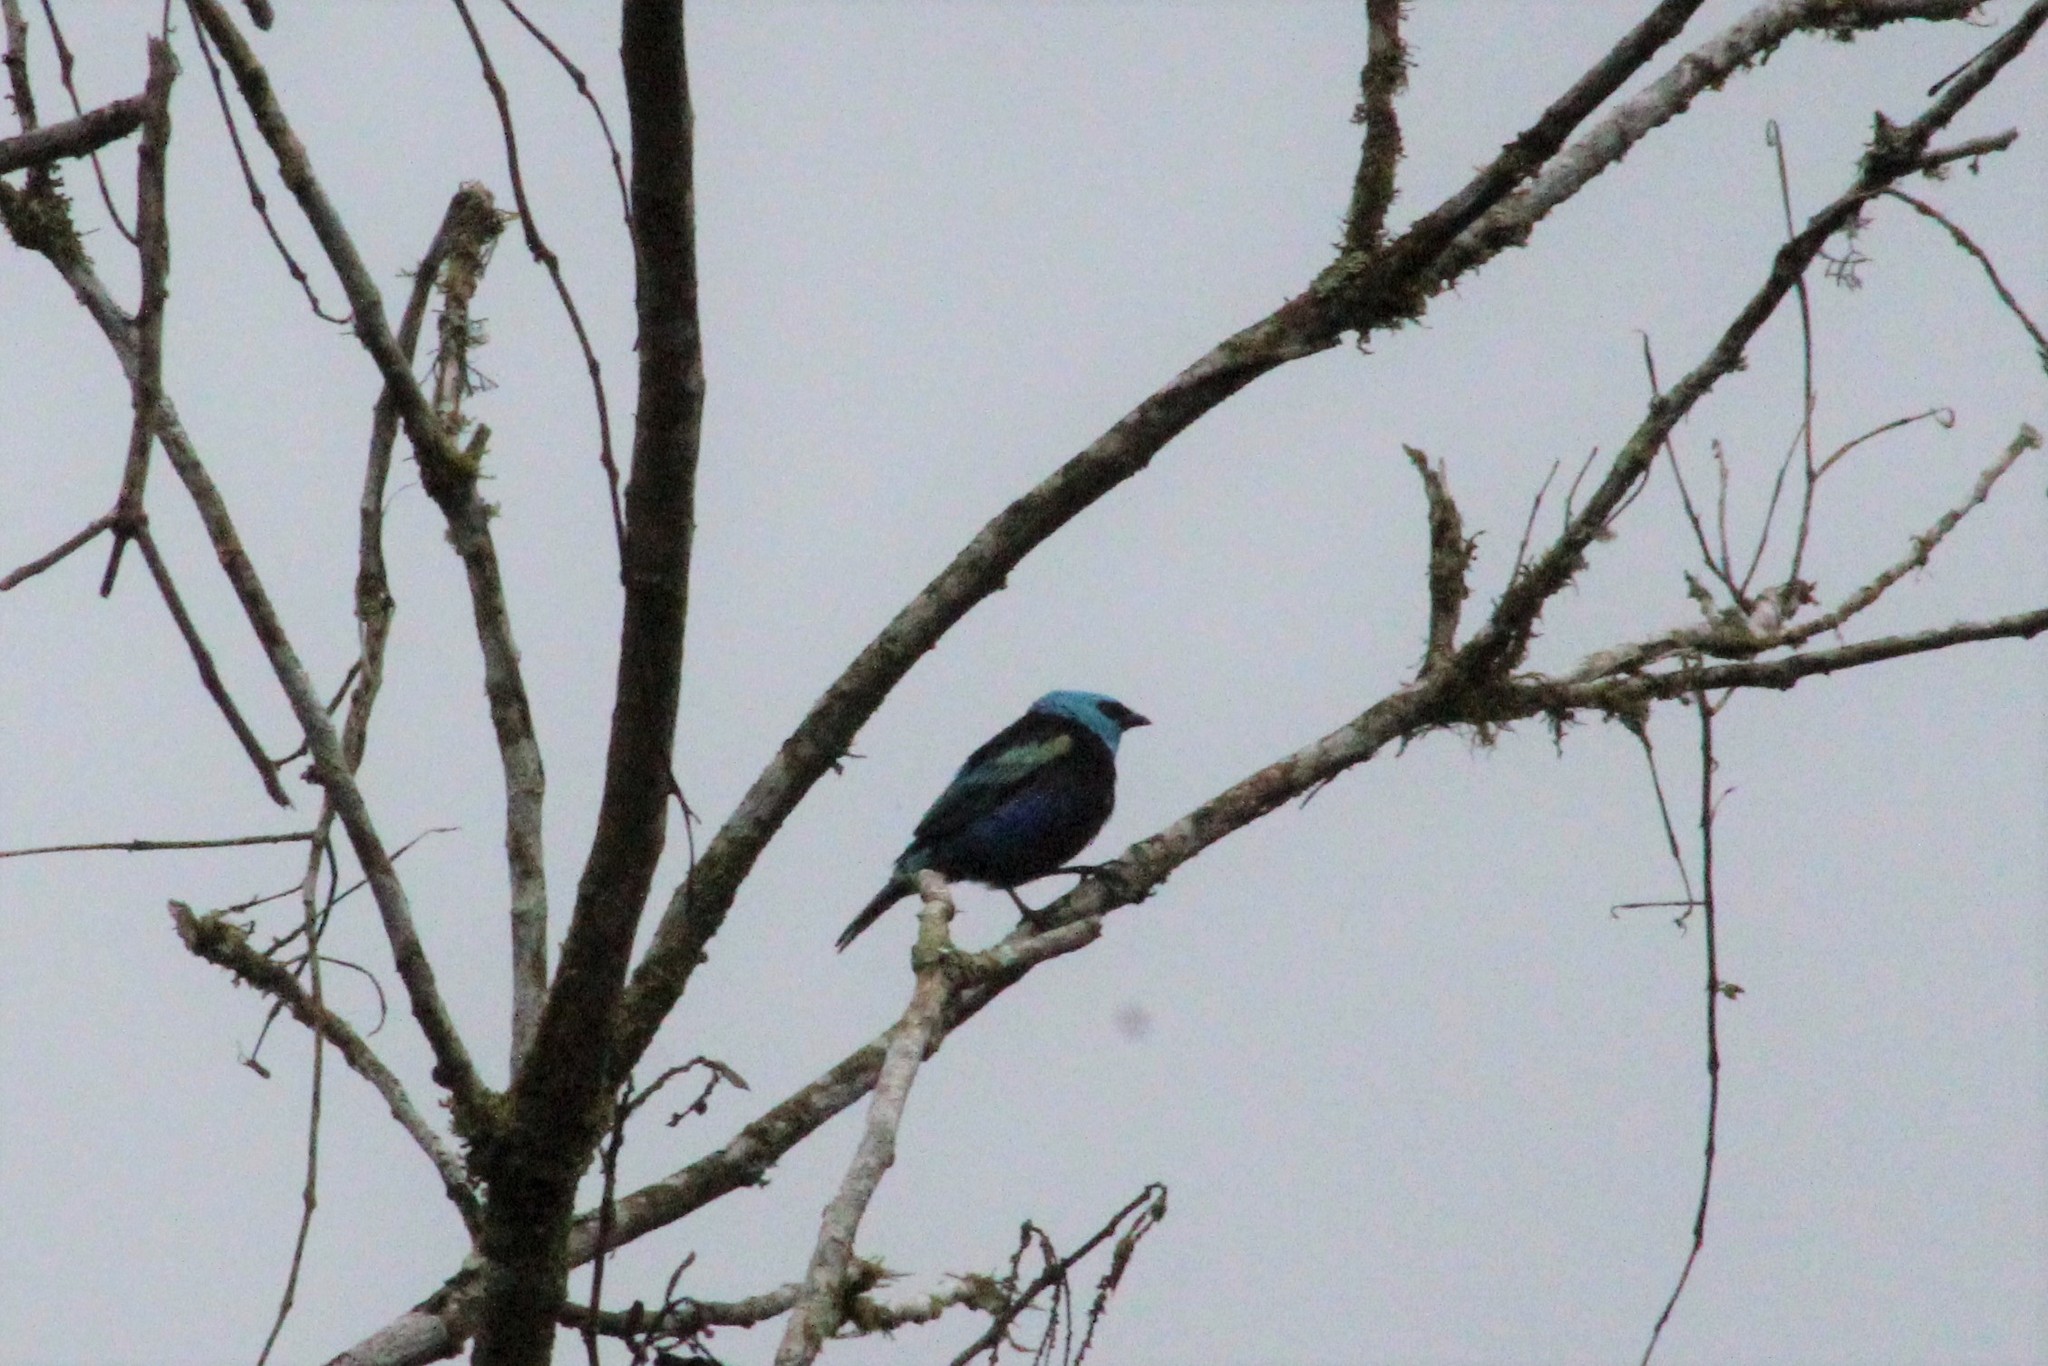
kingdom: Animalia
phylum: Chordata
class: Aves
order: Passeriformes
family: Thraupidae
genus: Stilpnia
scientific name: Stilpnia cyanicollis
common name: Blue-necked tanager
